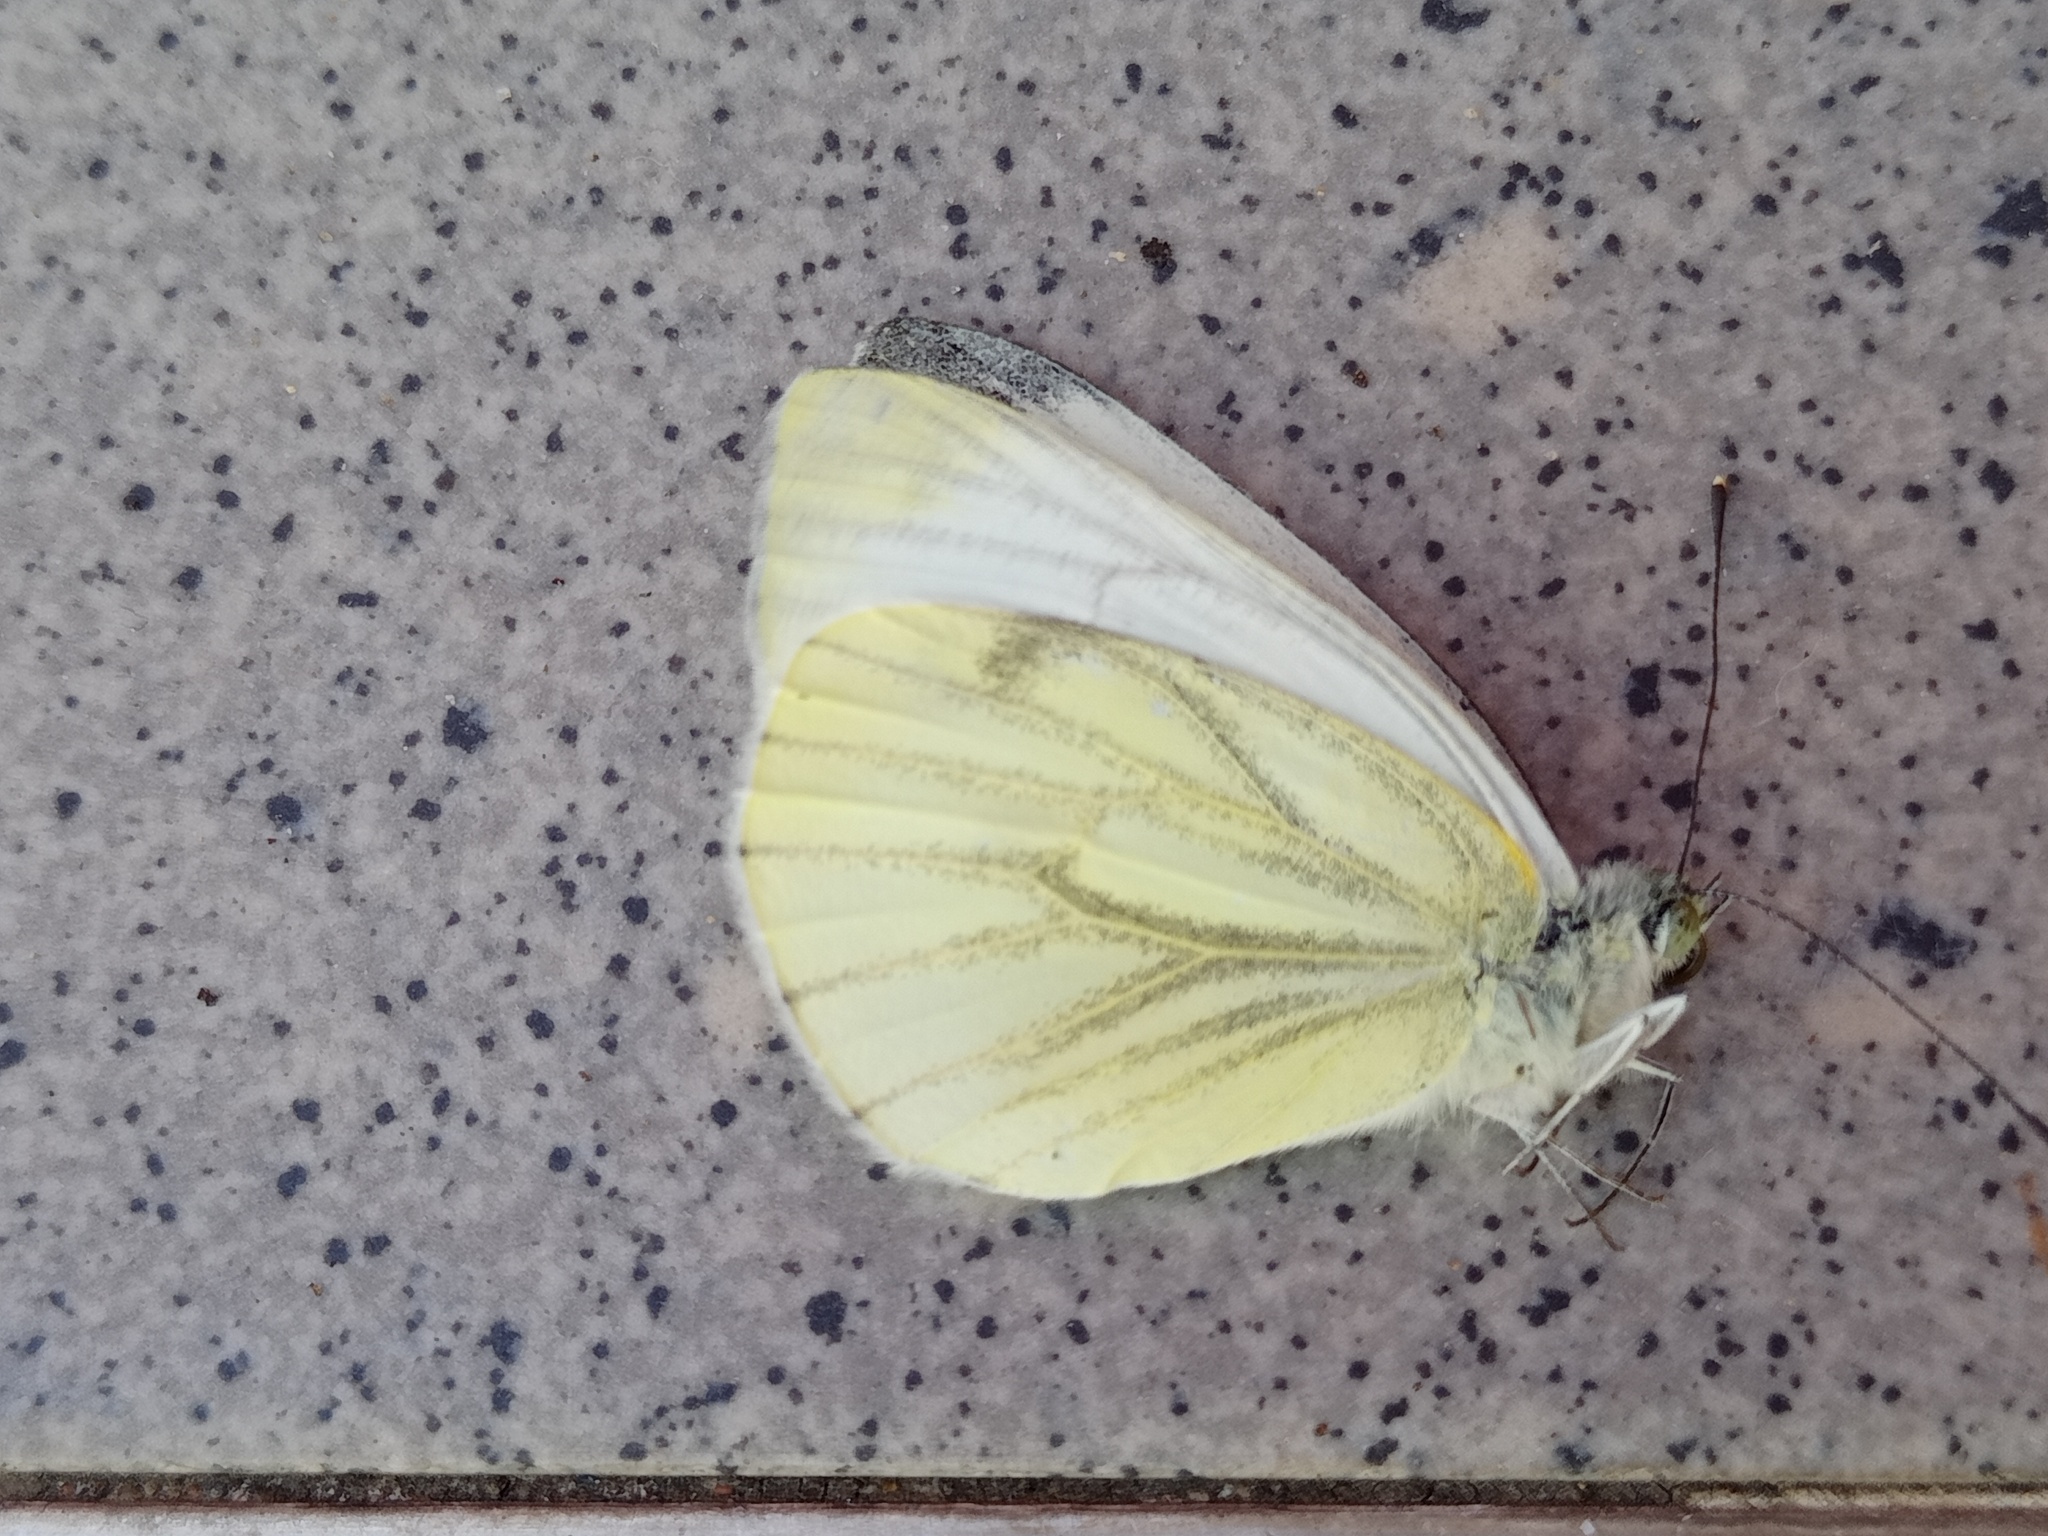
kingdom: Animalia
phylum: Arthropoda
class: Insecta
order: Lepidoptera
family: Pieridae
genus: Pieris
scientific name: Pieris napi
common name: Green-veined white
